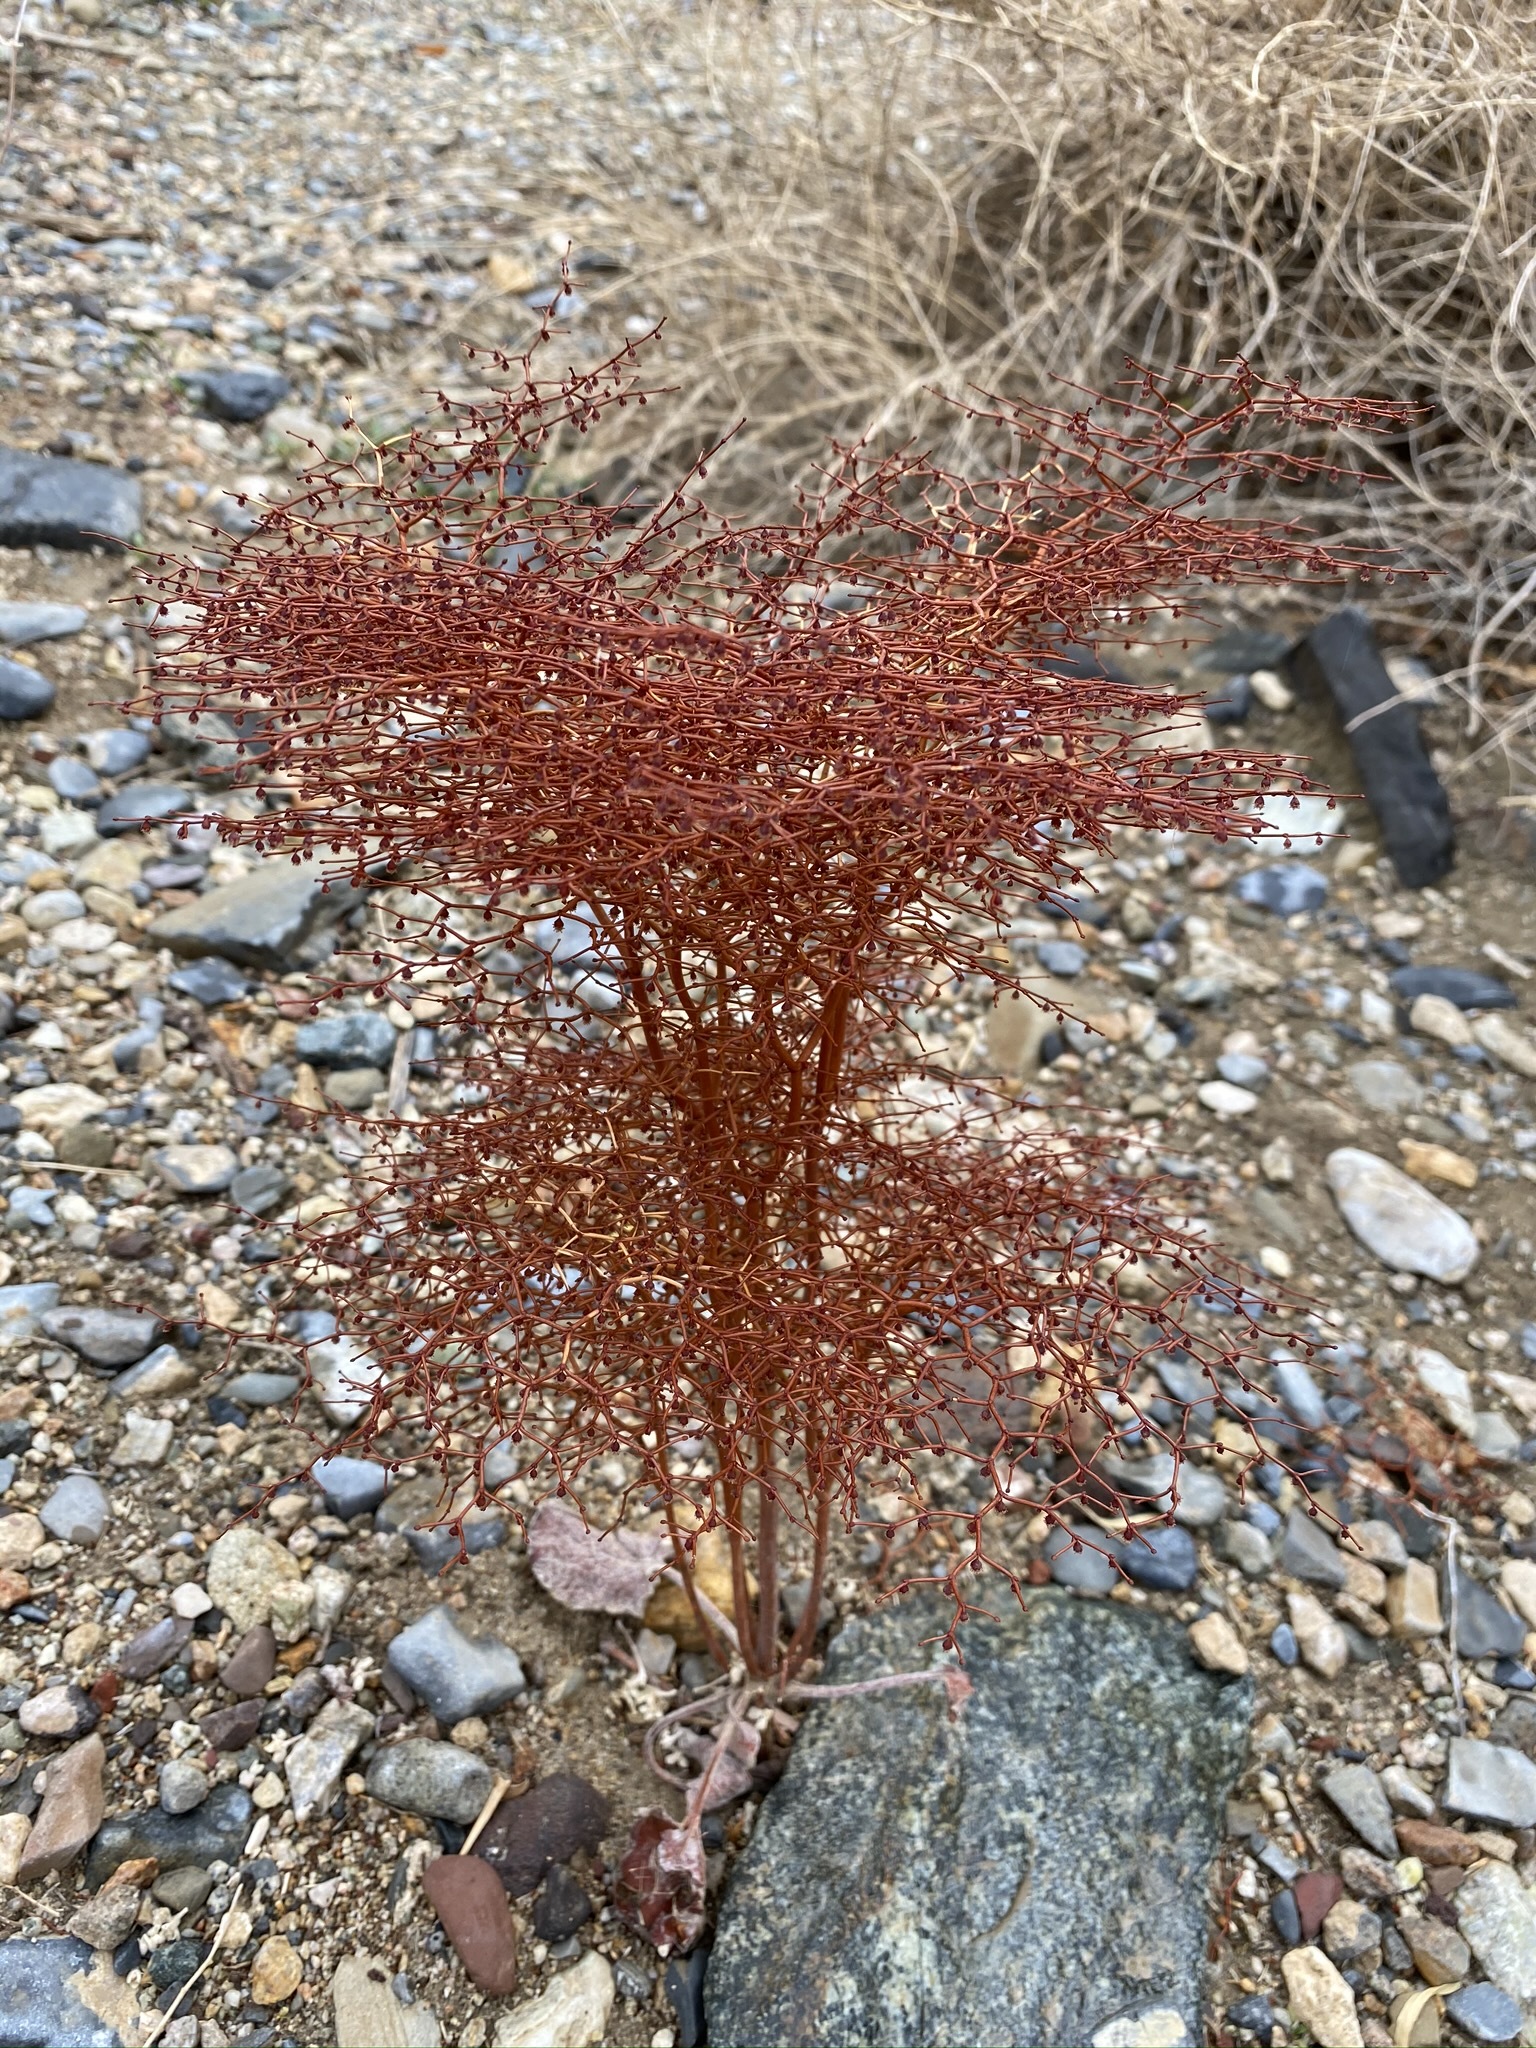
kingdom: Plantae
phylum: Tracheophyta
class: Magnoliopsida
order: Caryophyllales
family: Polygonaceae
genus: Eriogonum
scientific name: Eriogonum rixfordii
